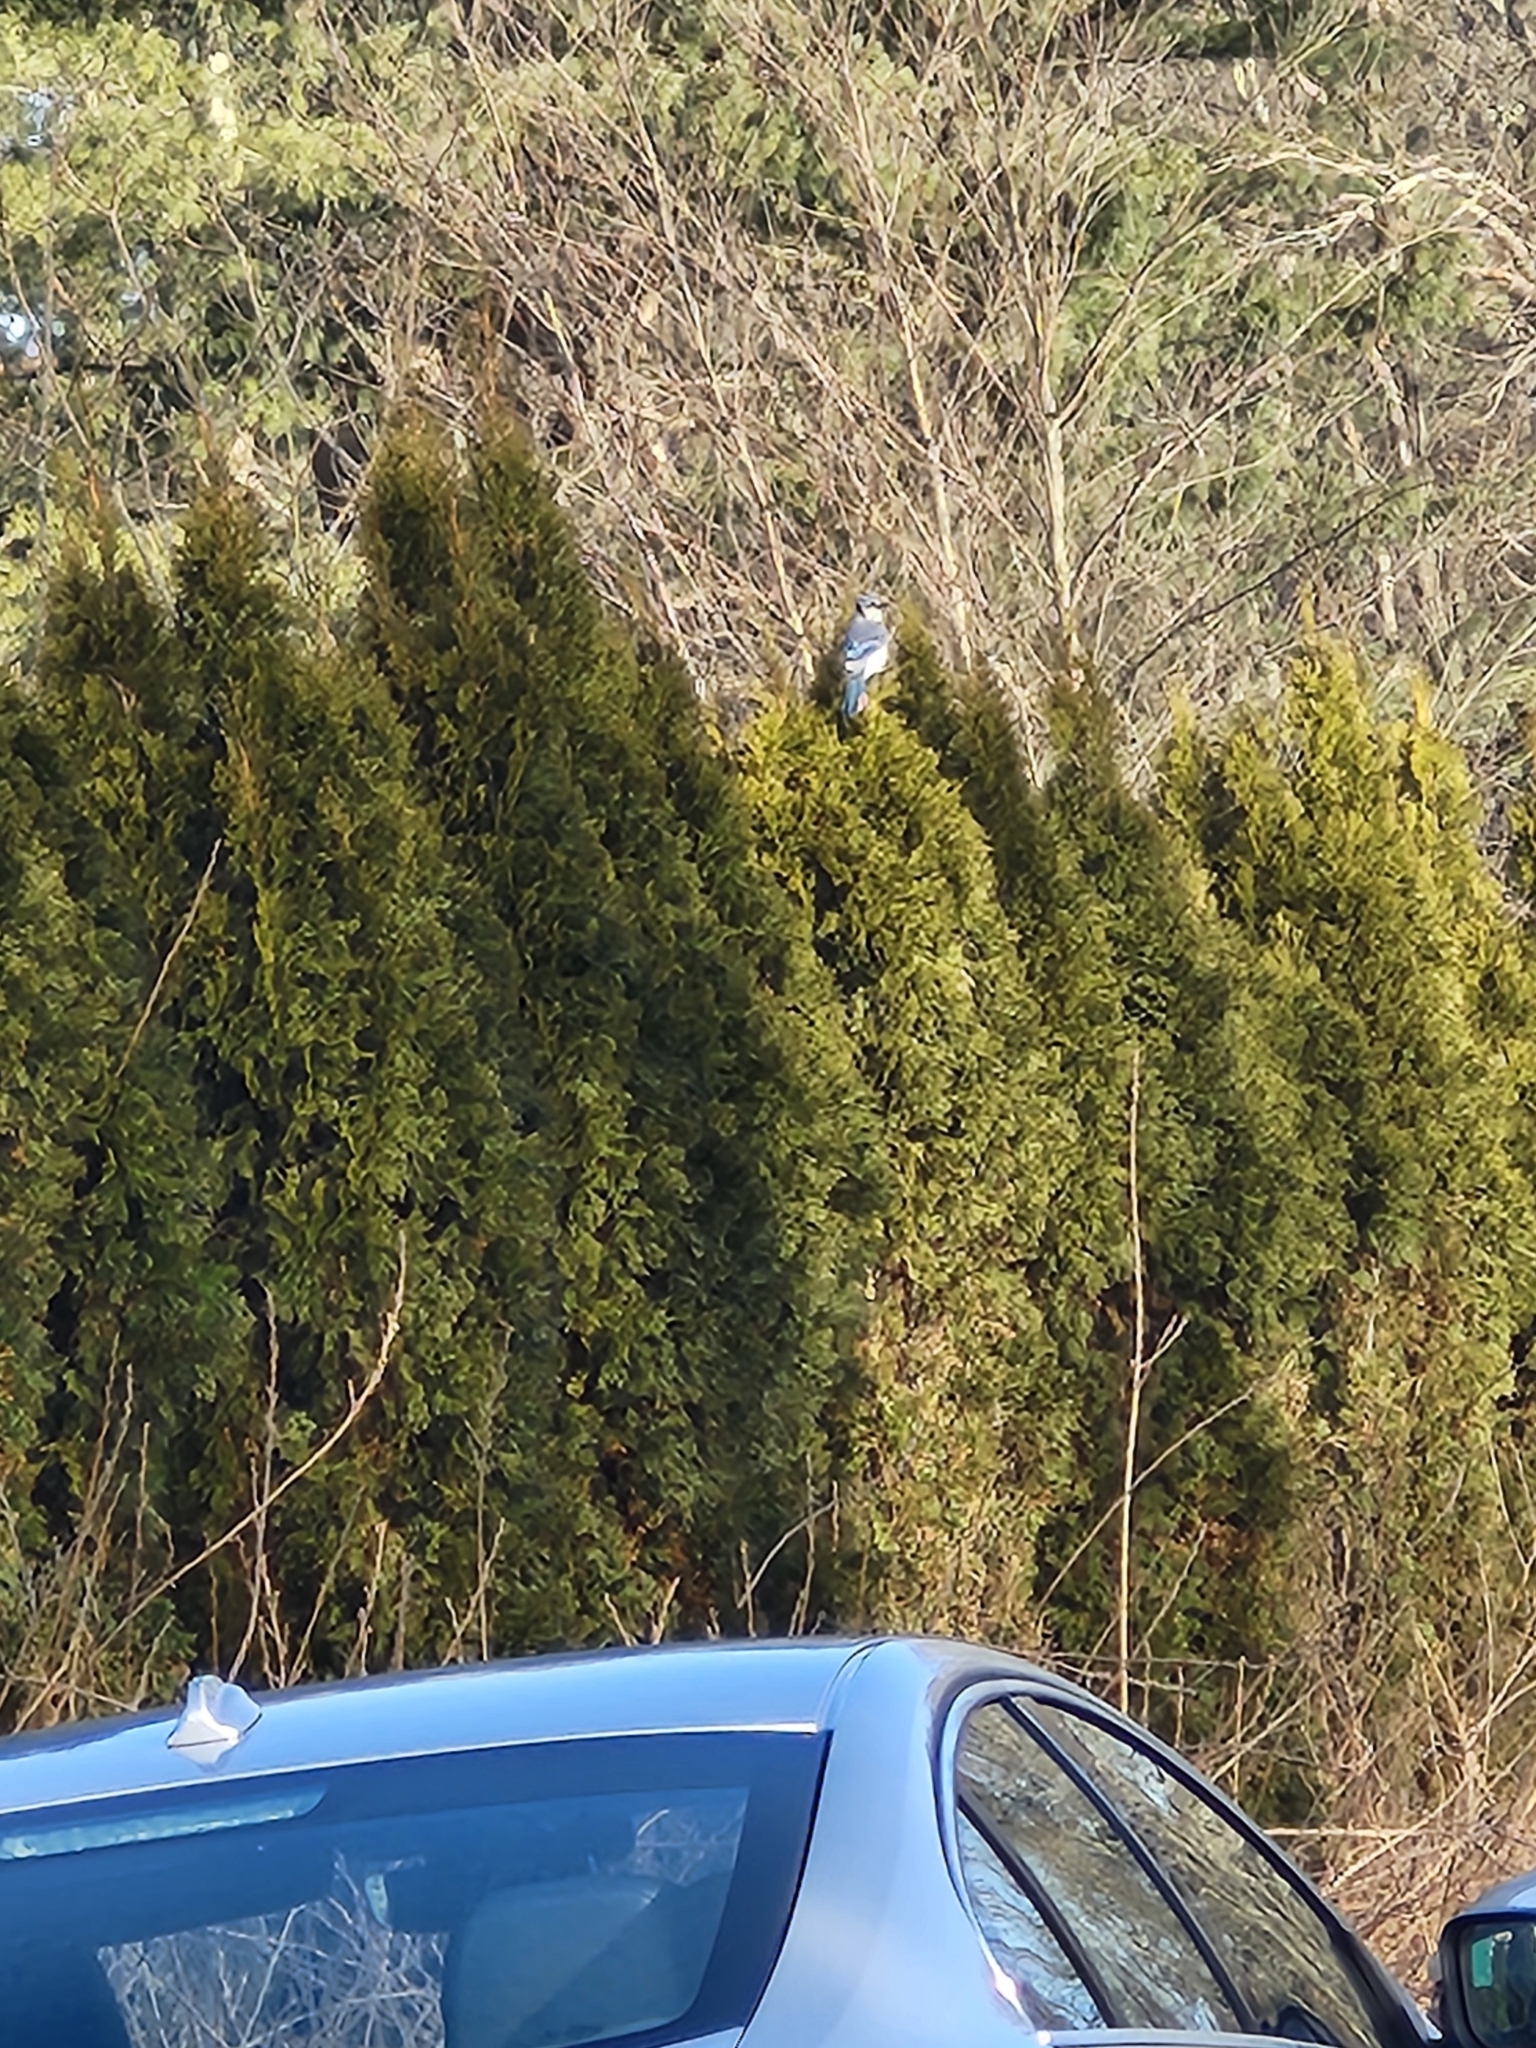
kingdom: Animalia
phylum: Chordata
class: Aves
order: Passeriformes
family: Corvidae
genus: Cyanocitta
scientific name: Cyanocitta cristata
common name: Blue jay
